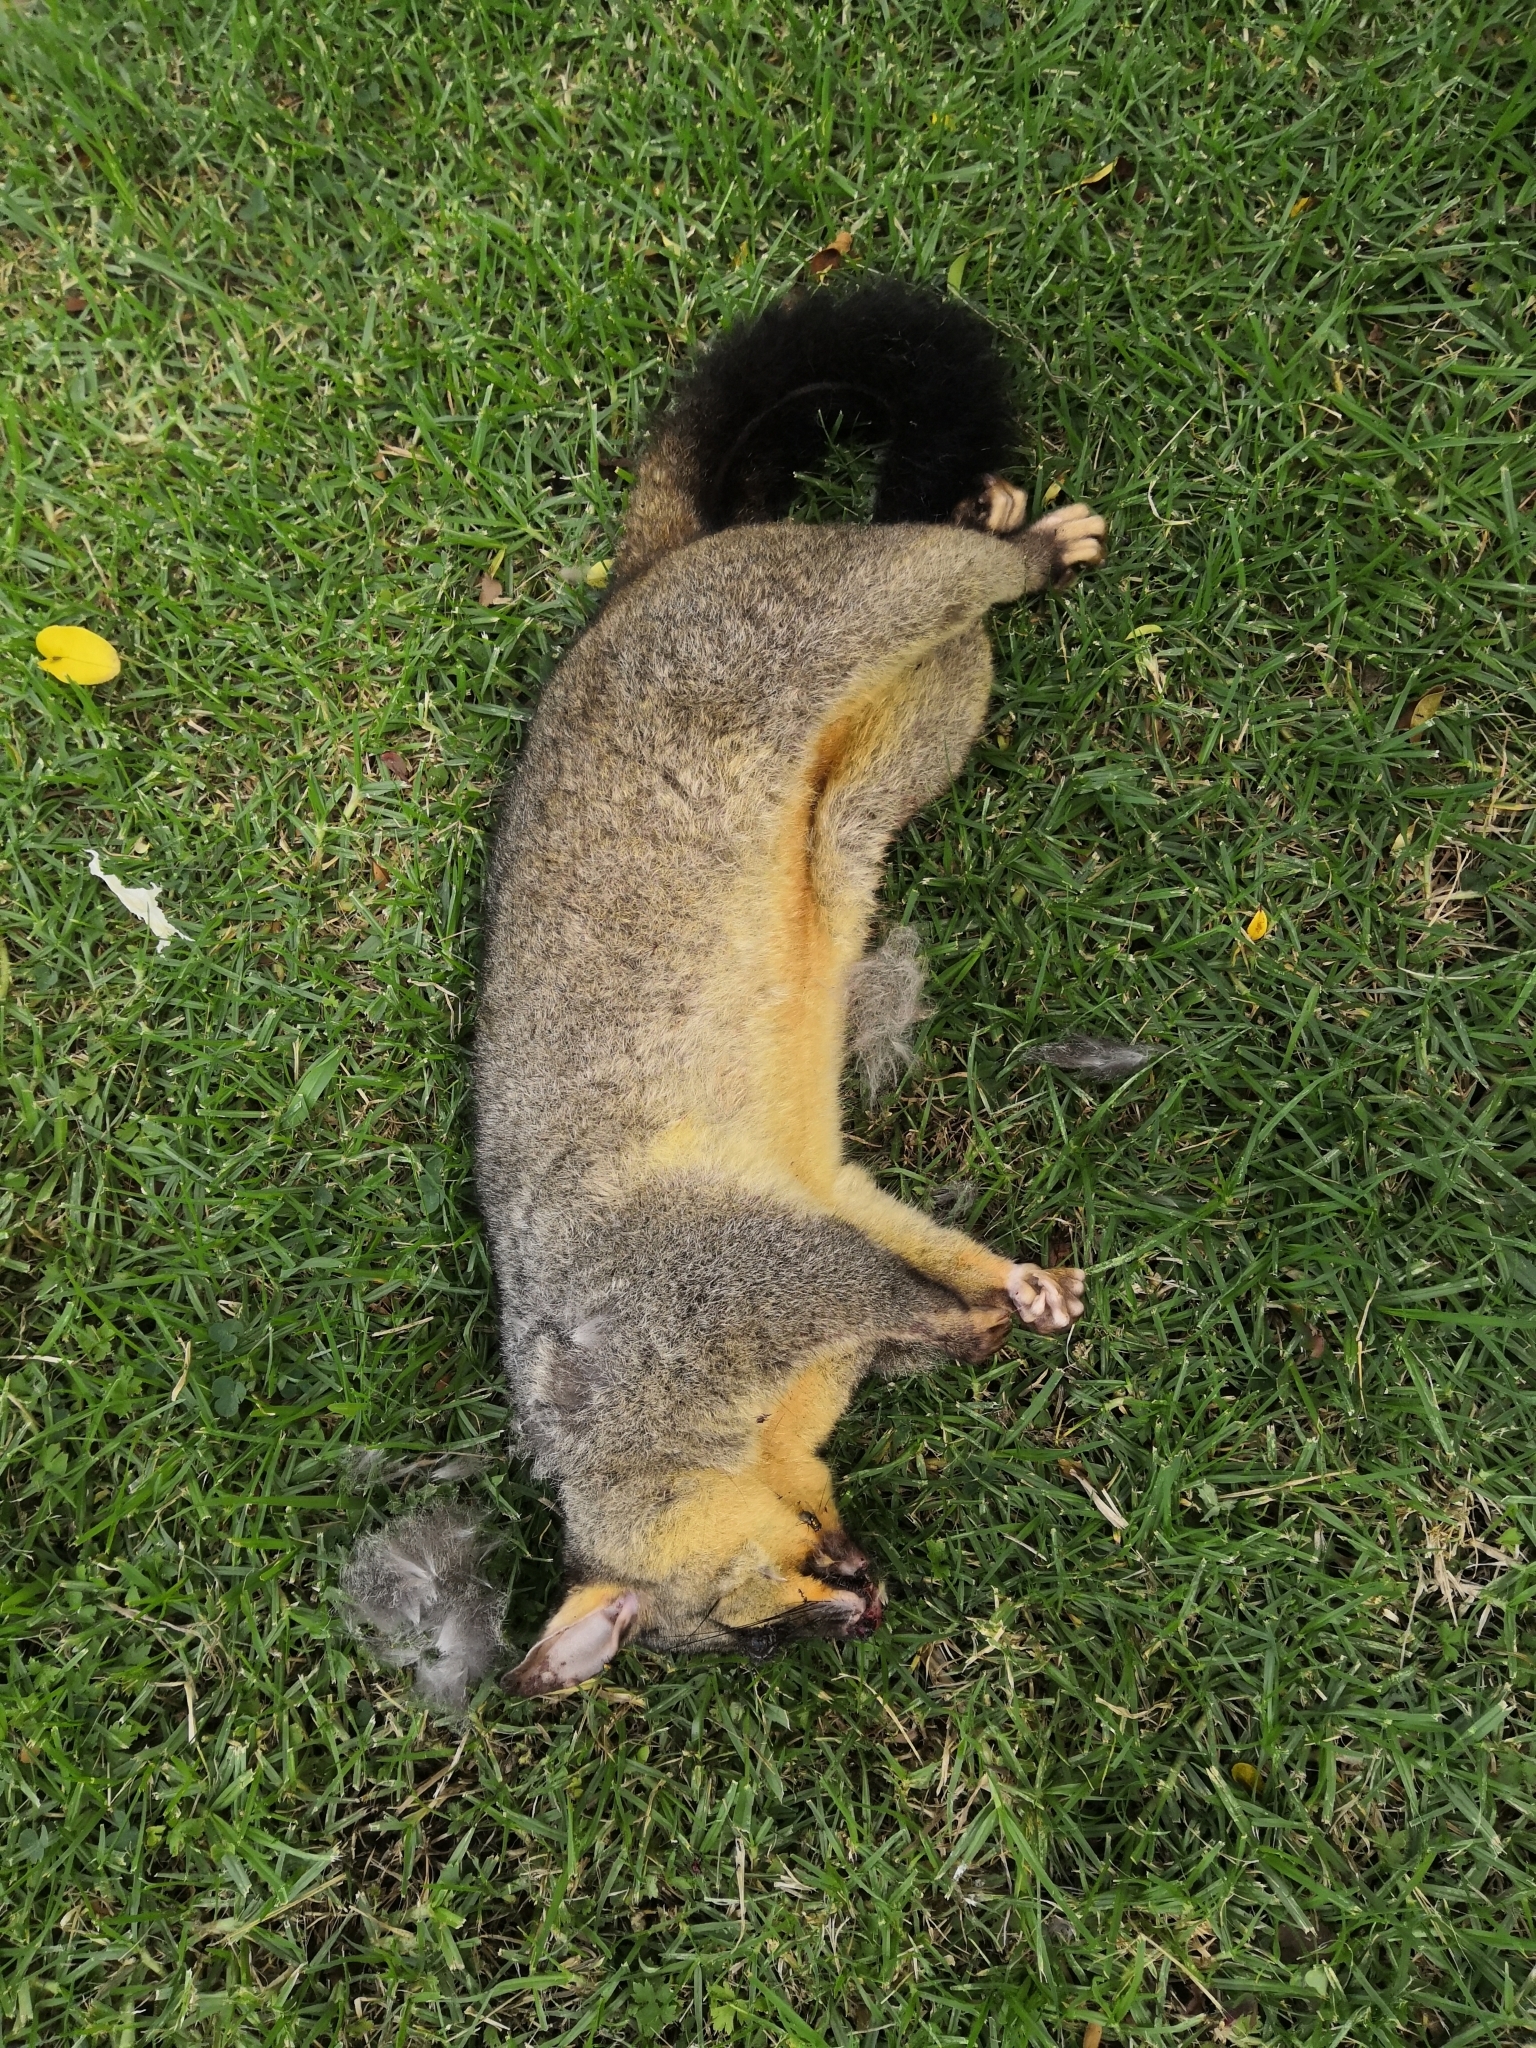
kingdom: Animalia
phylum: Chordata
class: Mammalia
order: Diprotodontia
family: Phalangeridae
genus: Trichosurus
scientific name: Trichosurus vulpecula
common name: Common brushtail
